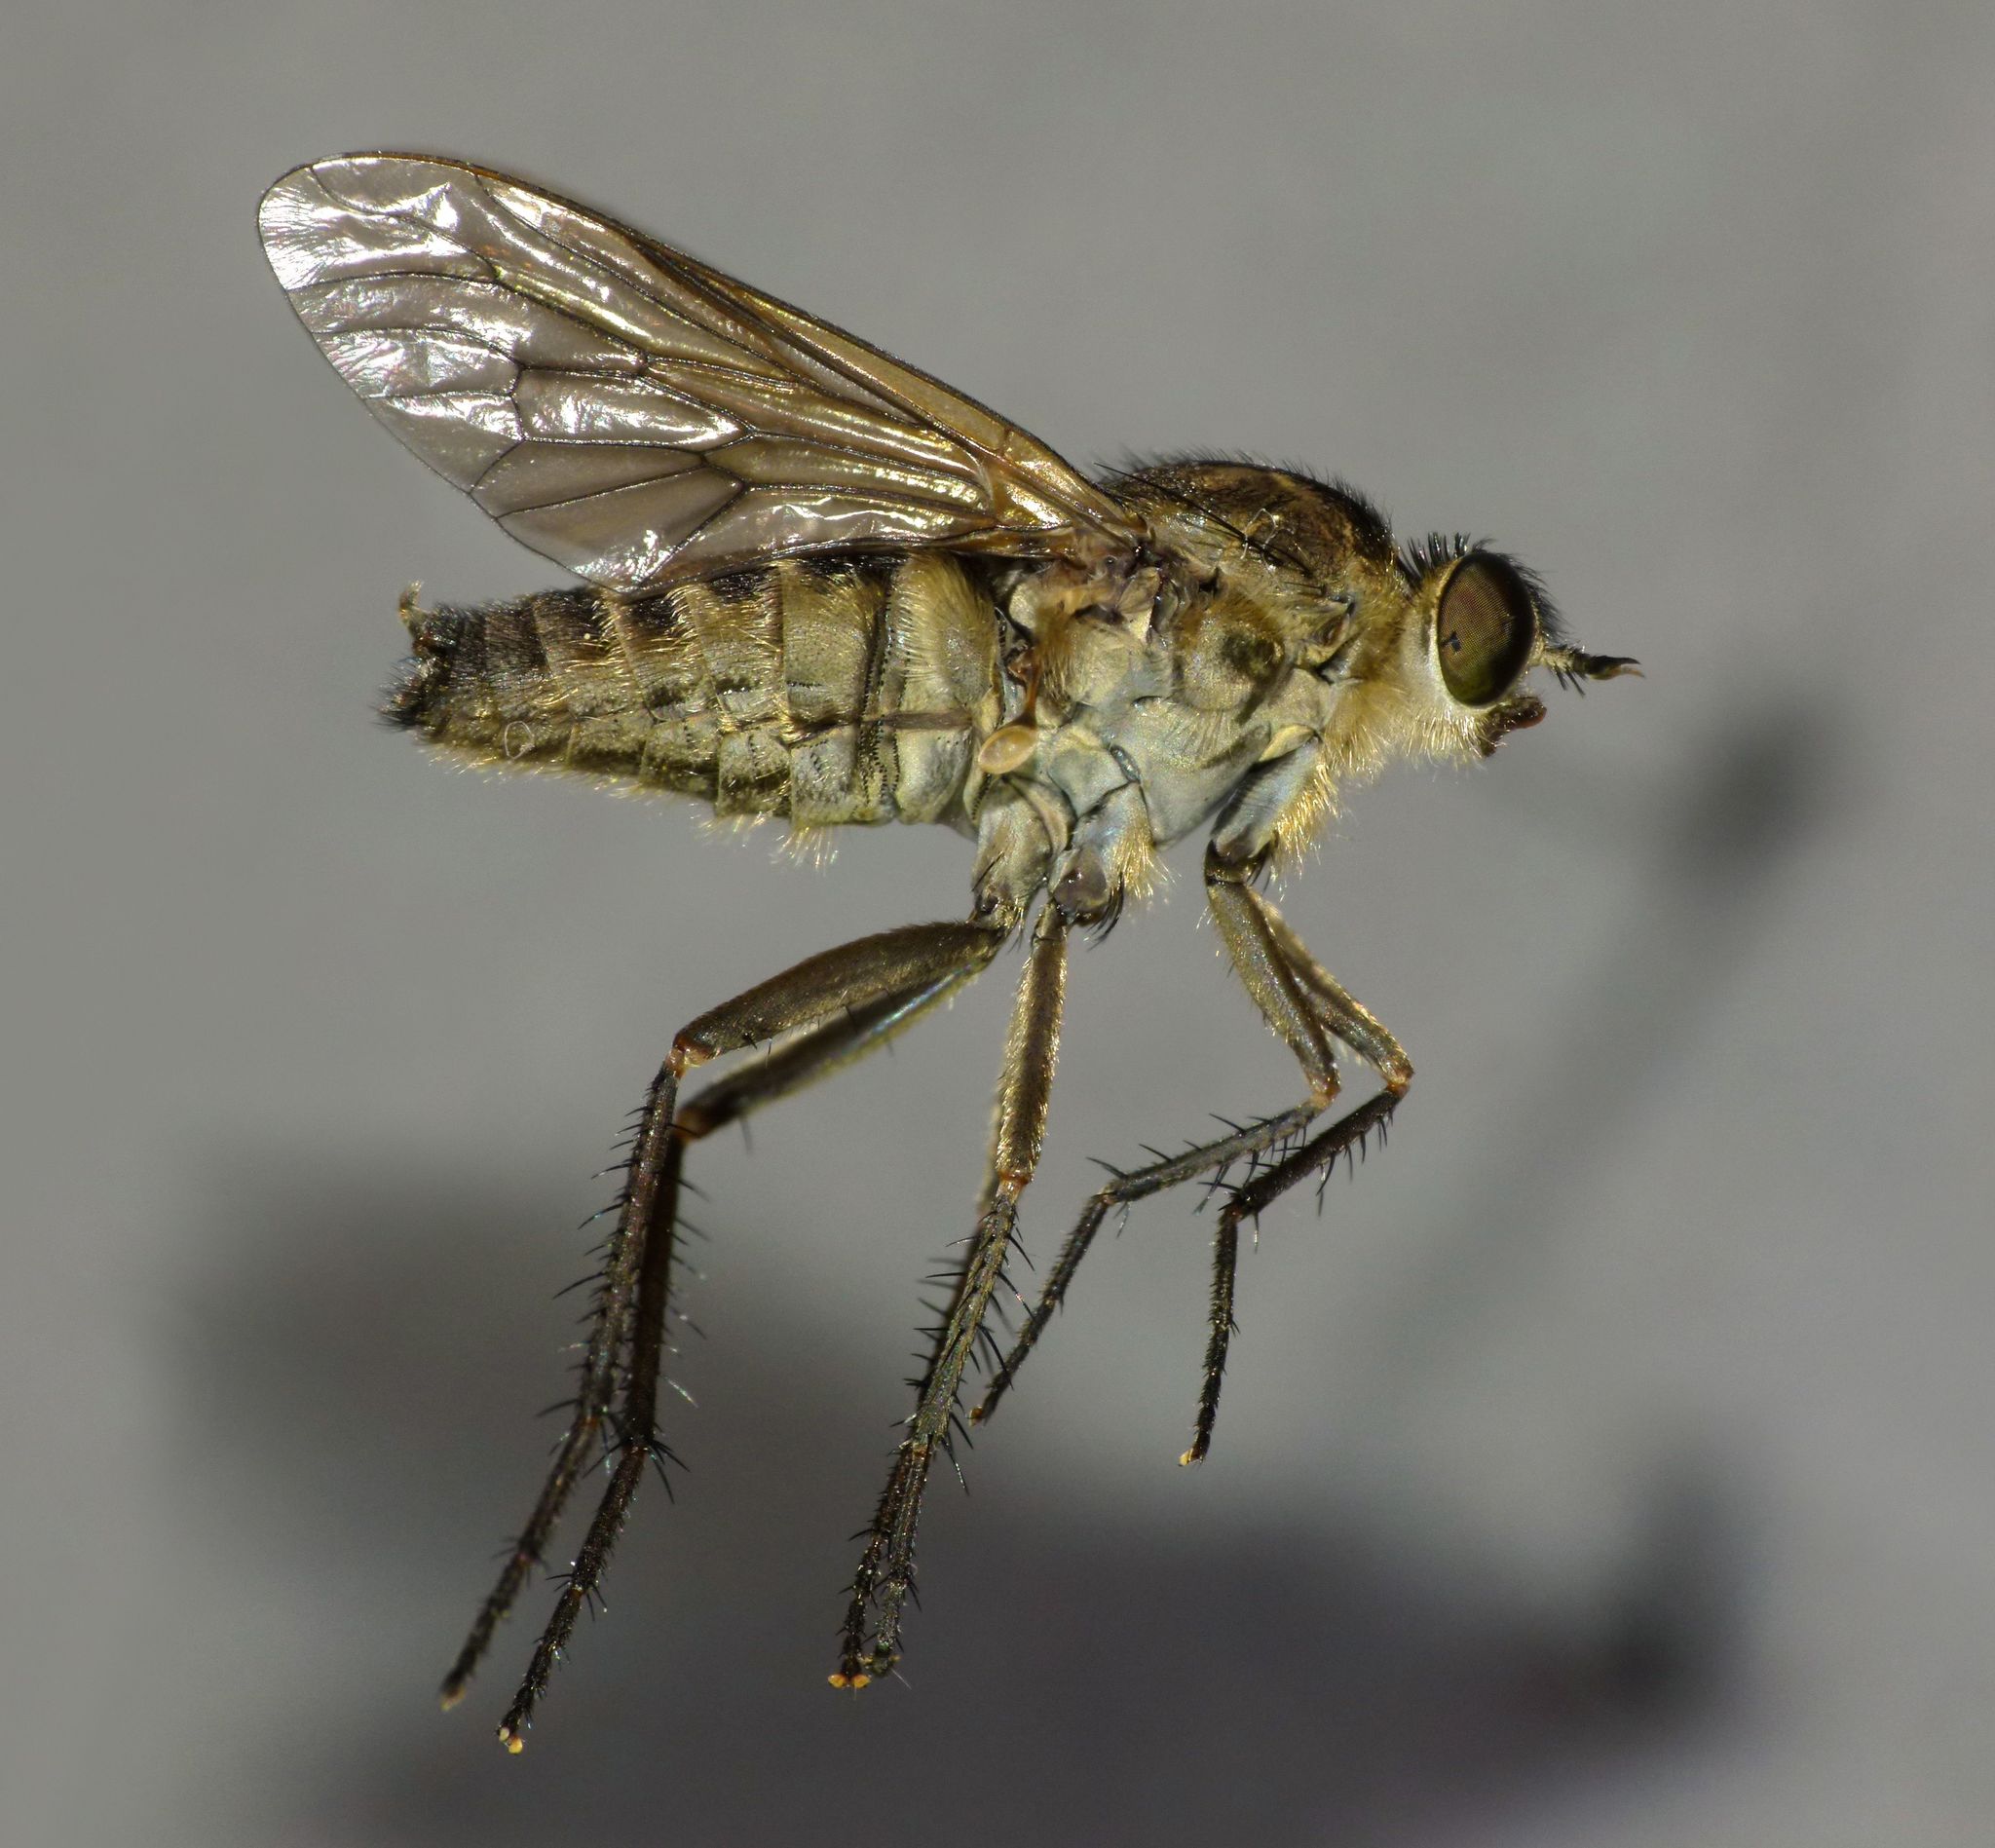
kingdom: Animalia
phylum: Arthropoda
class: Insecta
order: Diptera
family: Therevidae
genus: Anabarhynchus
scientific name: Anabarhynchus ruficoxa
